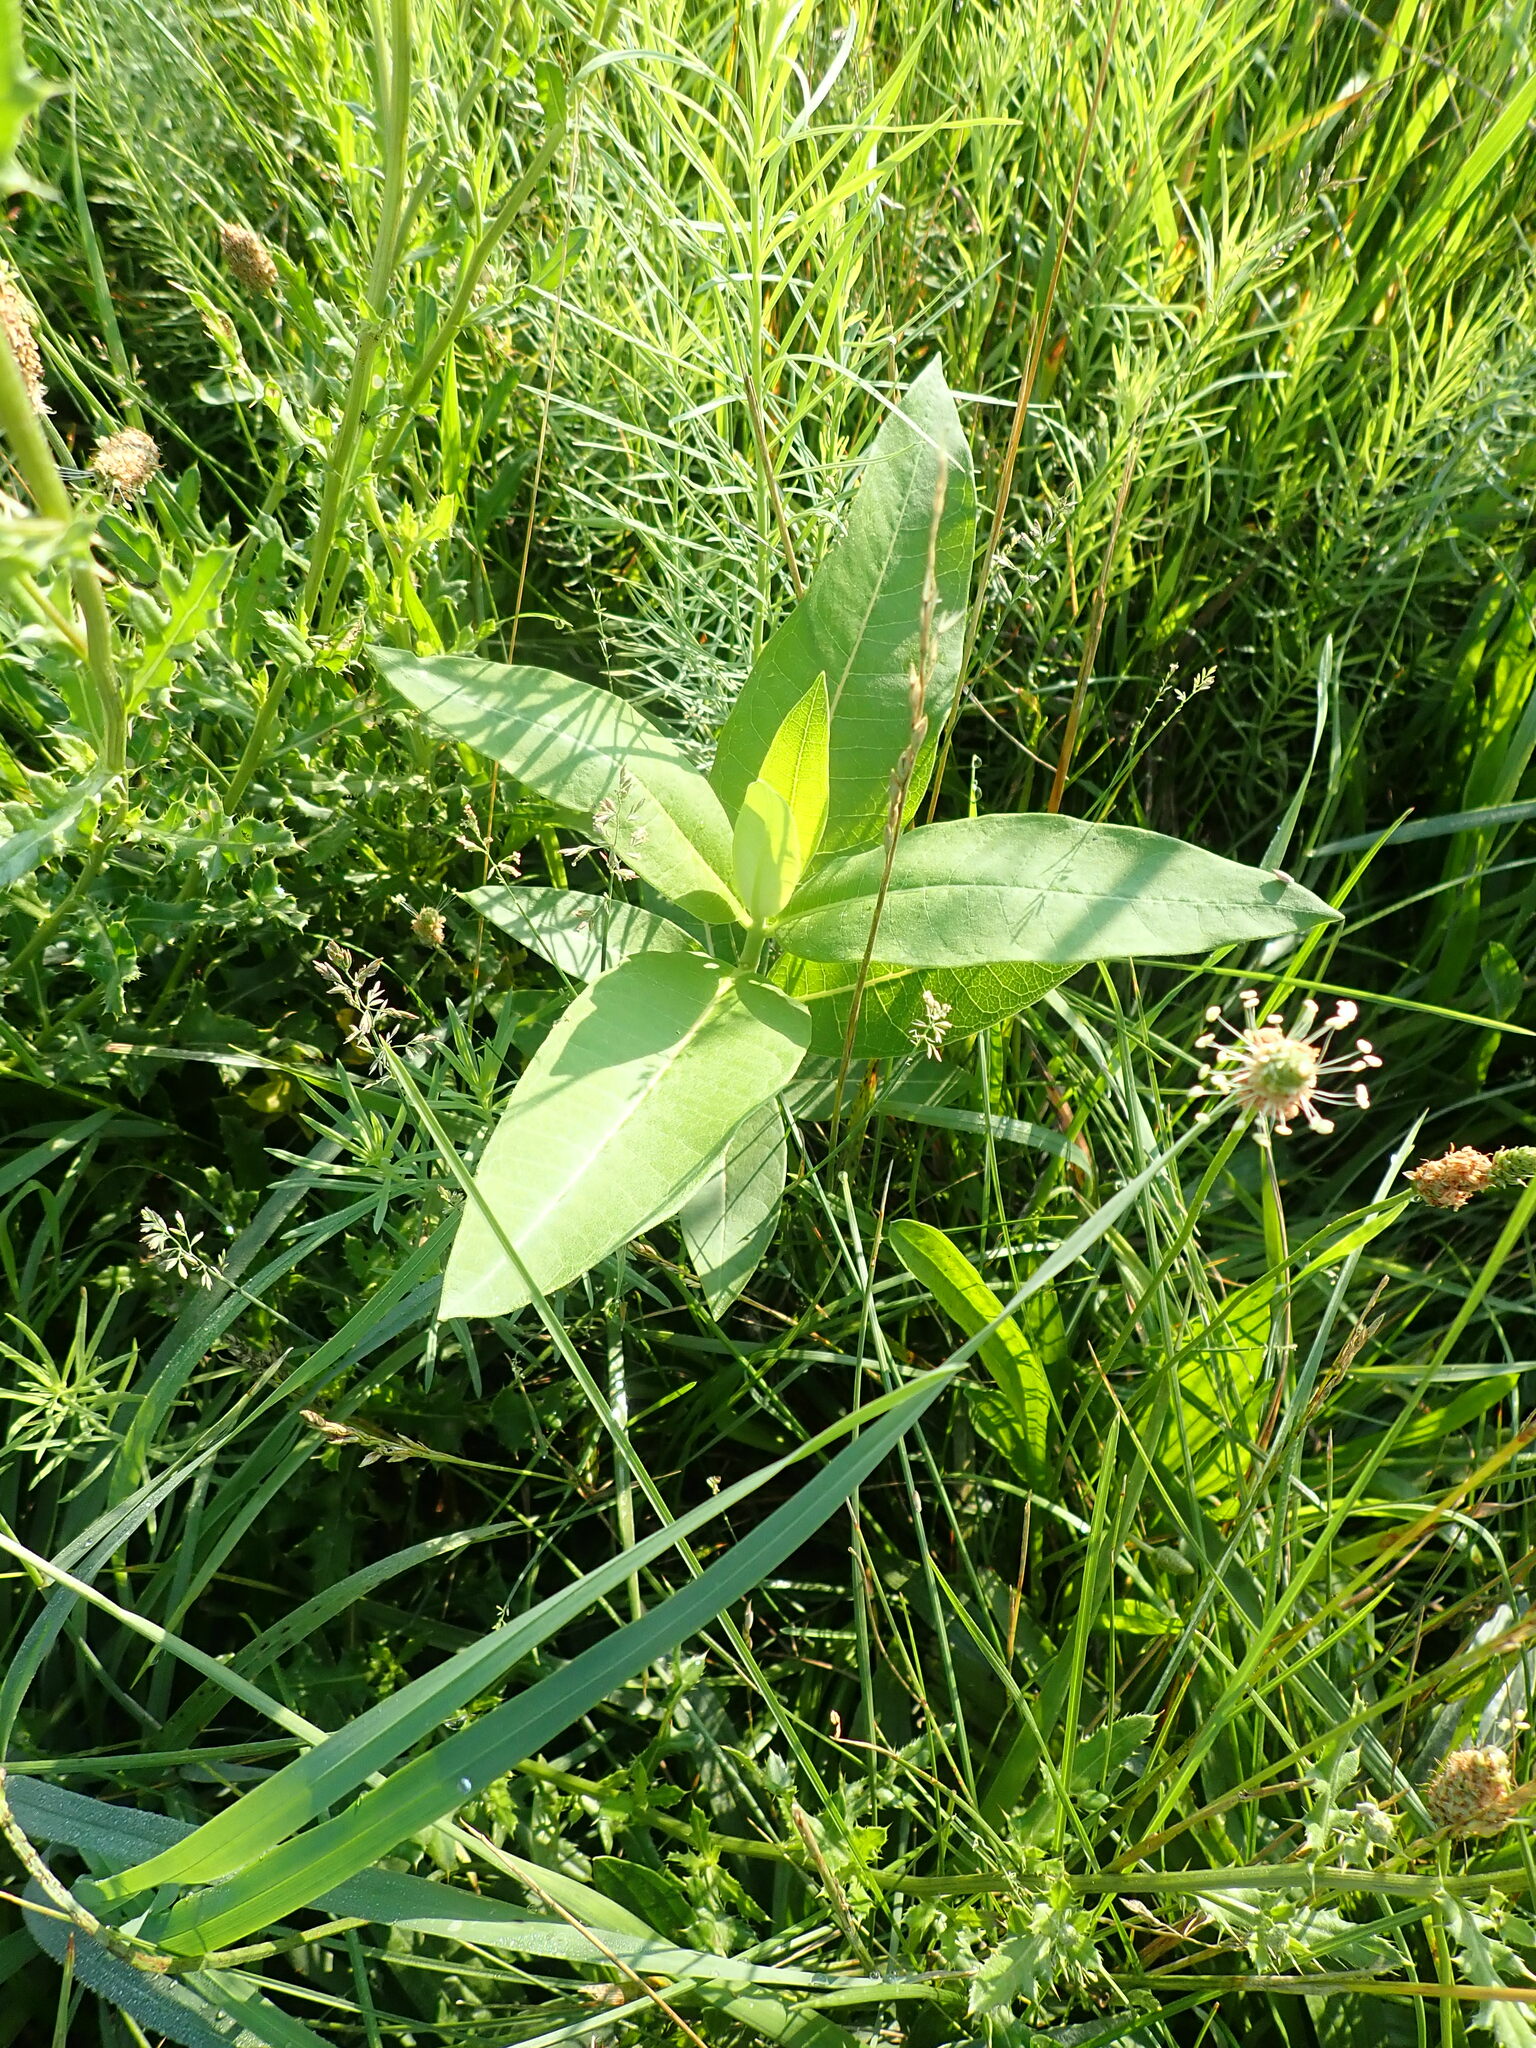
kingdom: Plantae
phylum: Tracheophyta
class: Magnoliopsida
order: Gentianales
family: Apocynaceae
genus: Asclepias
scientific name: Asclepias syriaca
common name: Common milkweed
